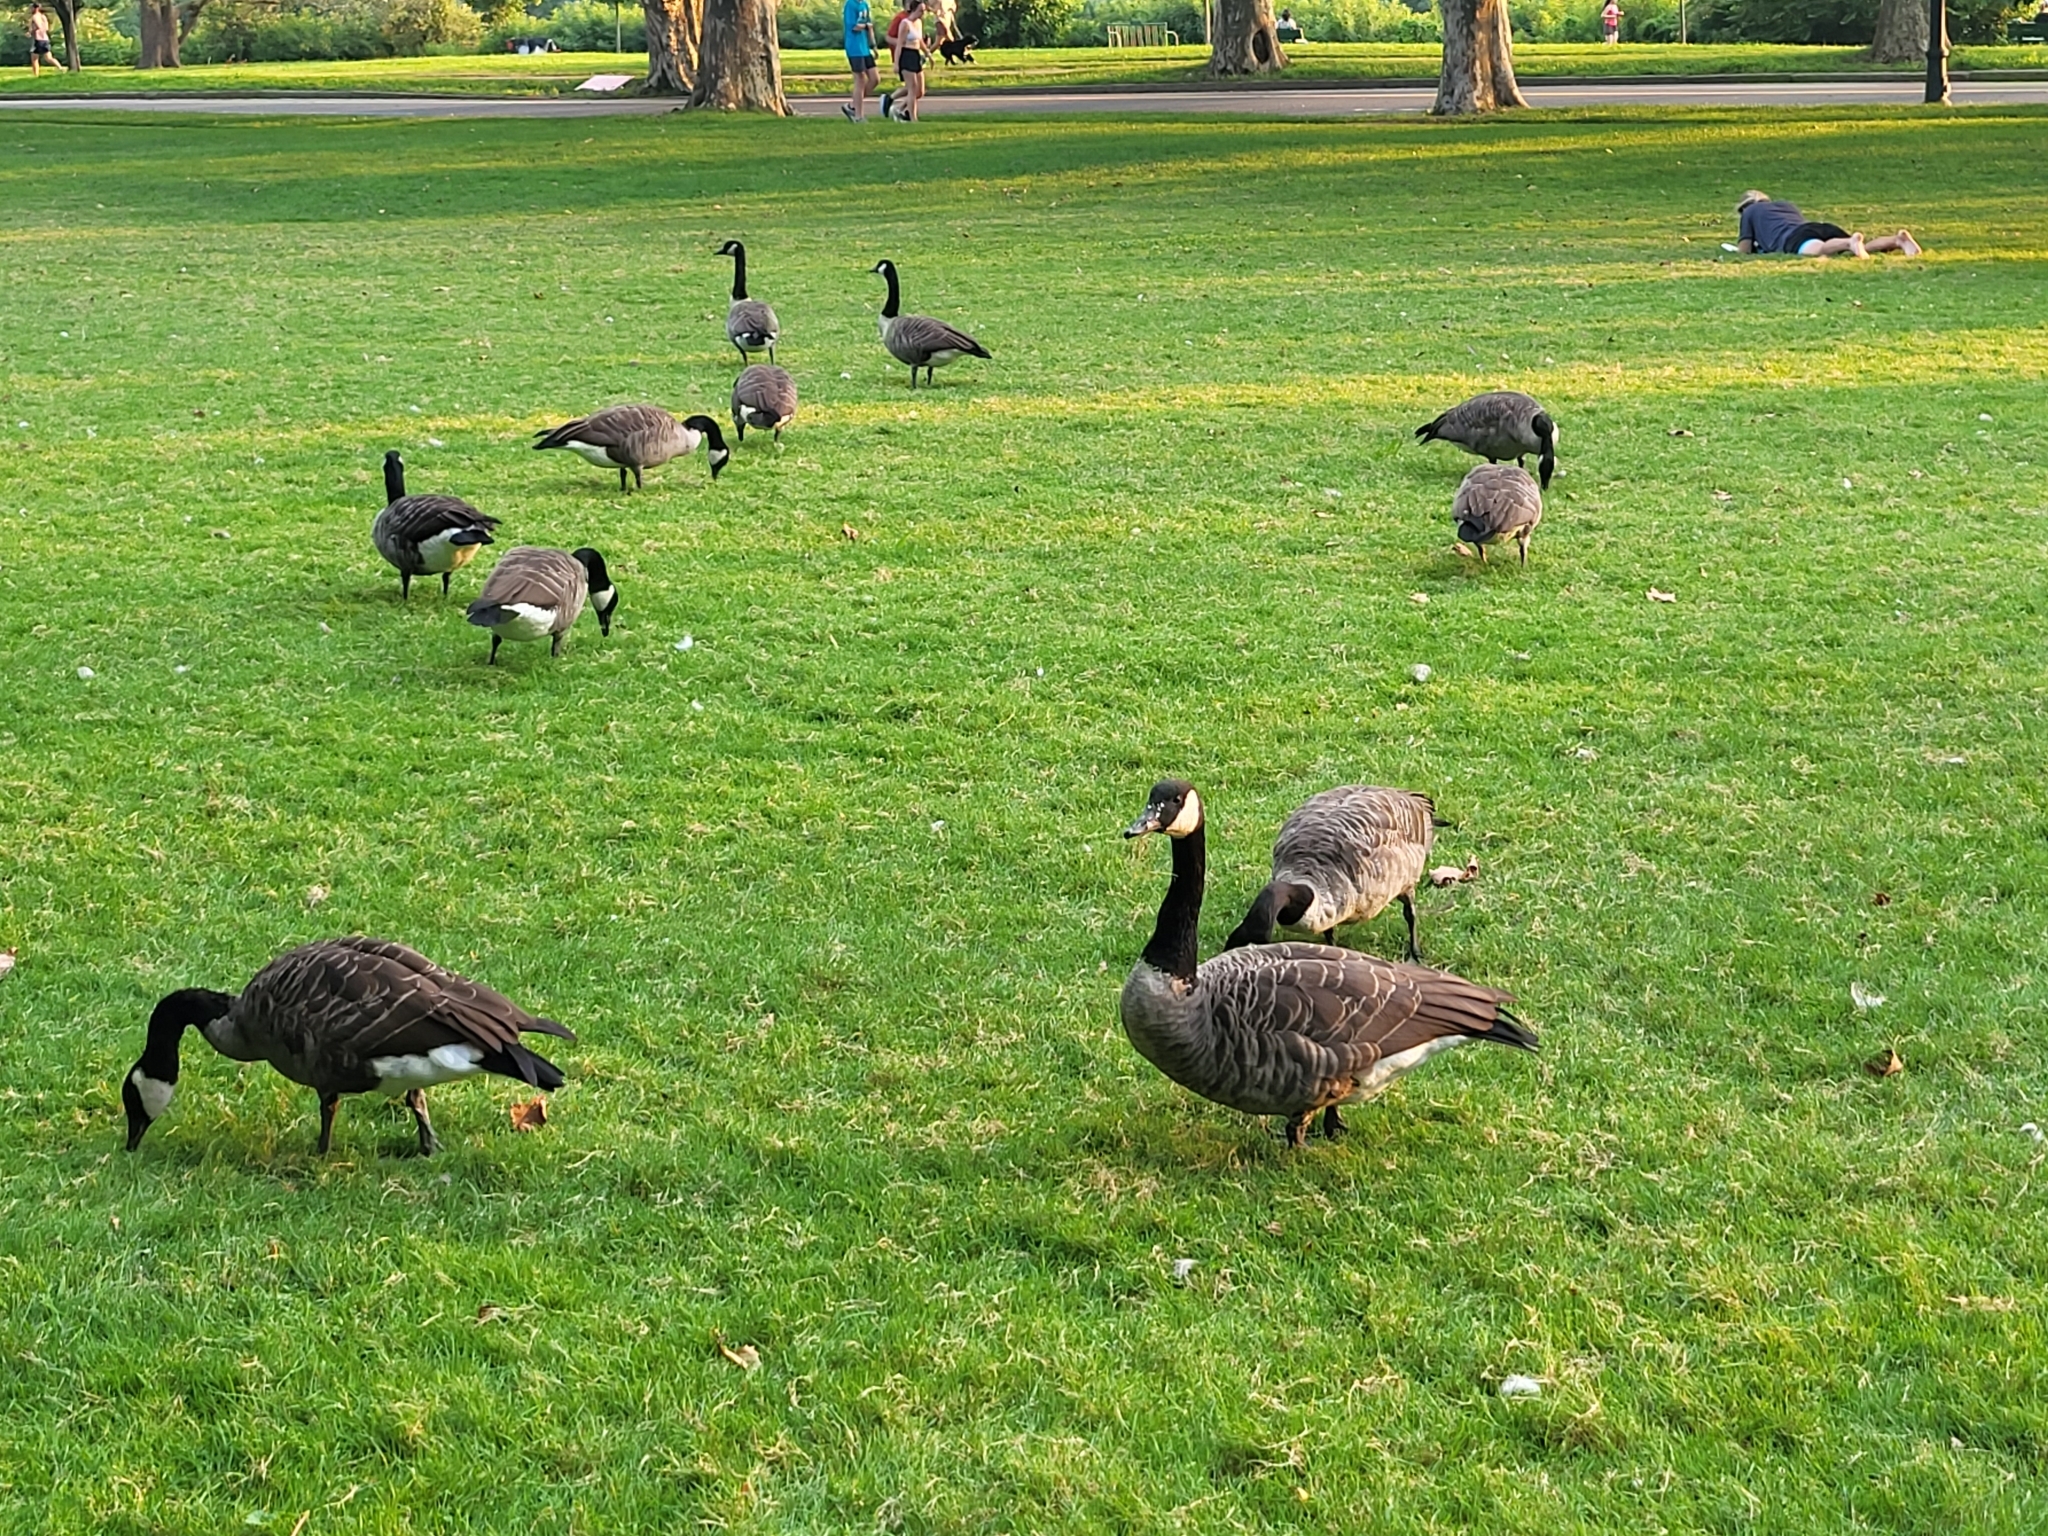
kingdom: Animalia
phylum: Chordata
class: Aves
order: Anseriformes
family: Anatidae
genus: Branta
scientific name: Branta canadensis
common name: Canada goose
